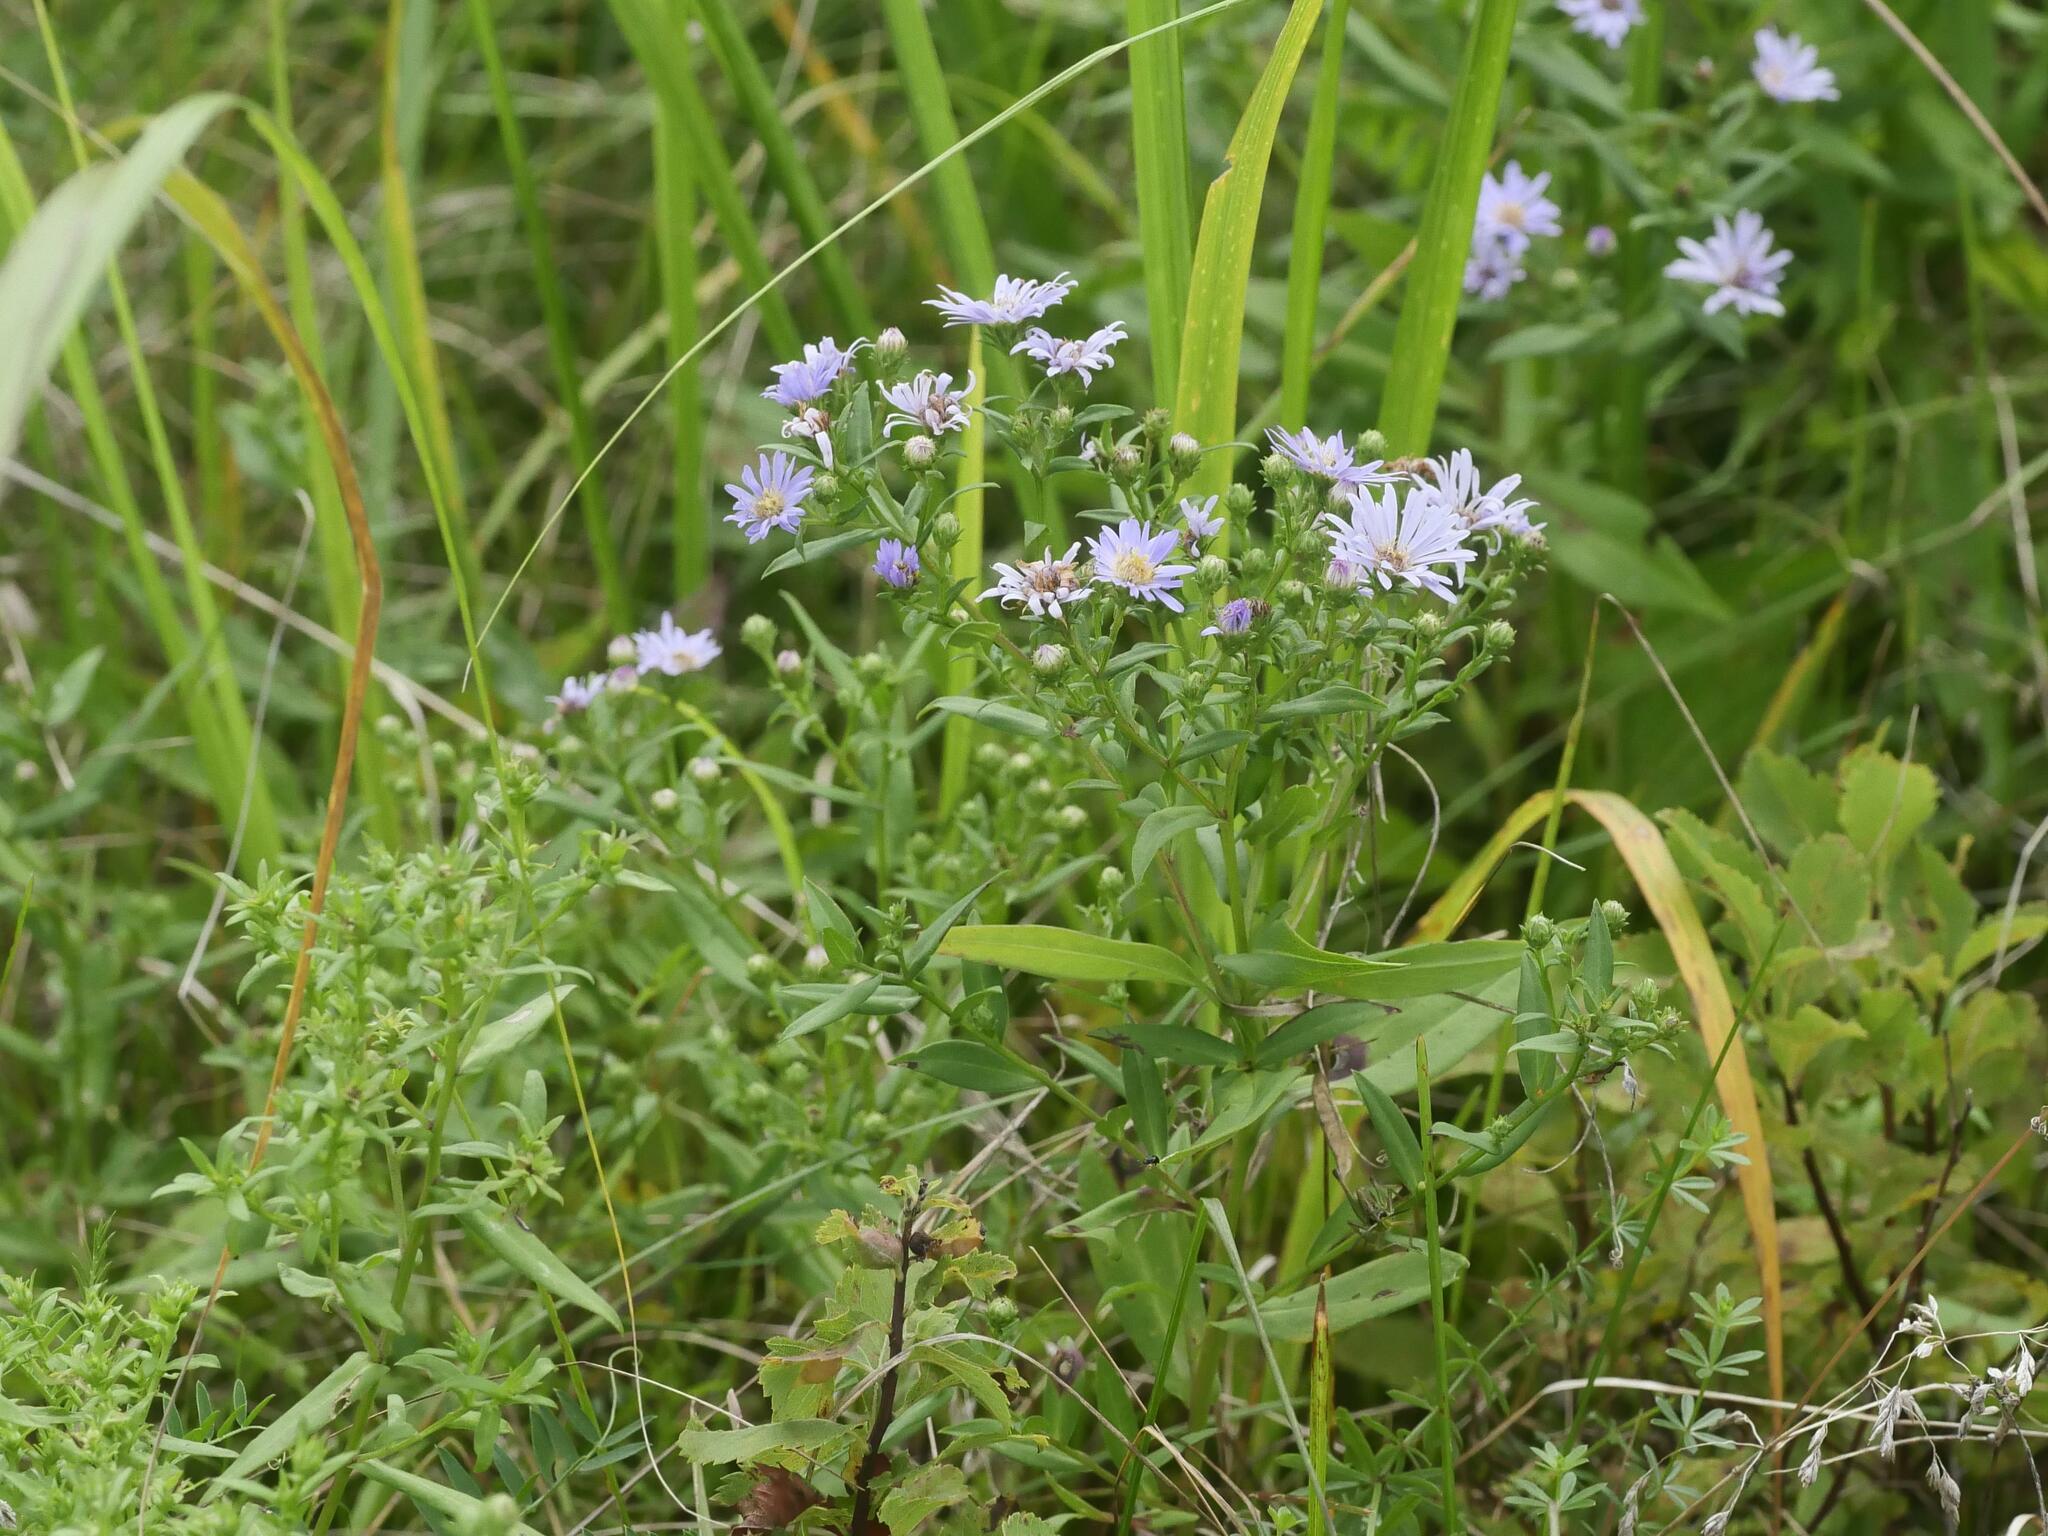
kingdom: Plantae
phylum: Tracheophyta
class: Magnoliopsida
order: Asterales
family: Asteraceae
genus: Symphyotrichum
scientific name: Symphyotrichum novi-belgii
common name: Michaelmas daisy
